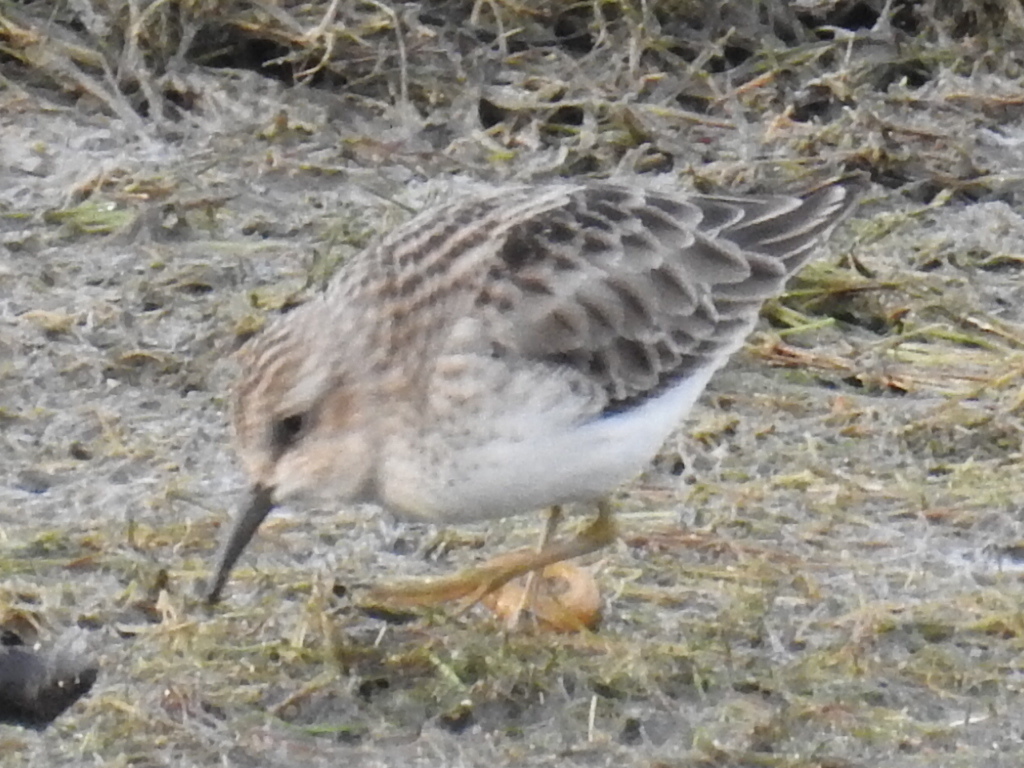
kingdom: Animalia
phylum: Chordata
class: Aves
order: Charadriiformes
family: Scolopacidae
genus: Calidris
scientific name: Calidris minutilla
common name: Least sandpiper
